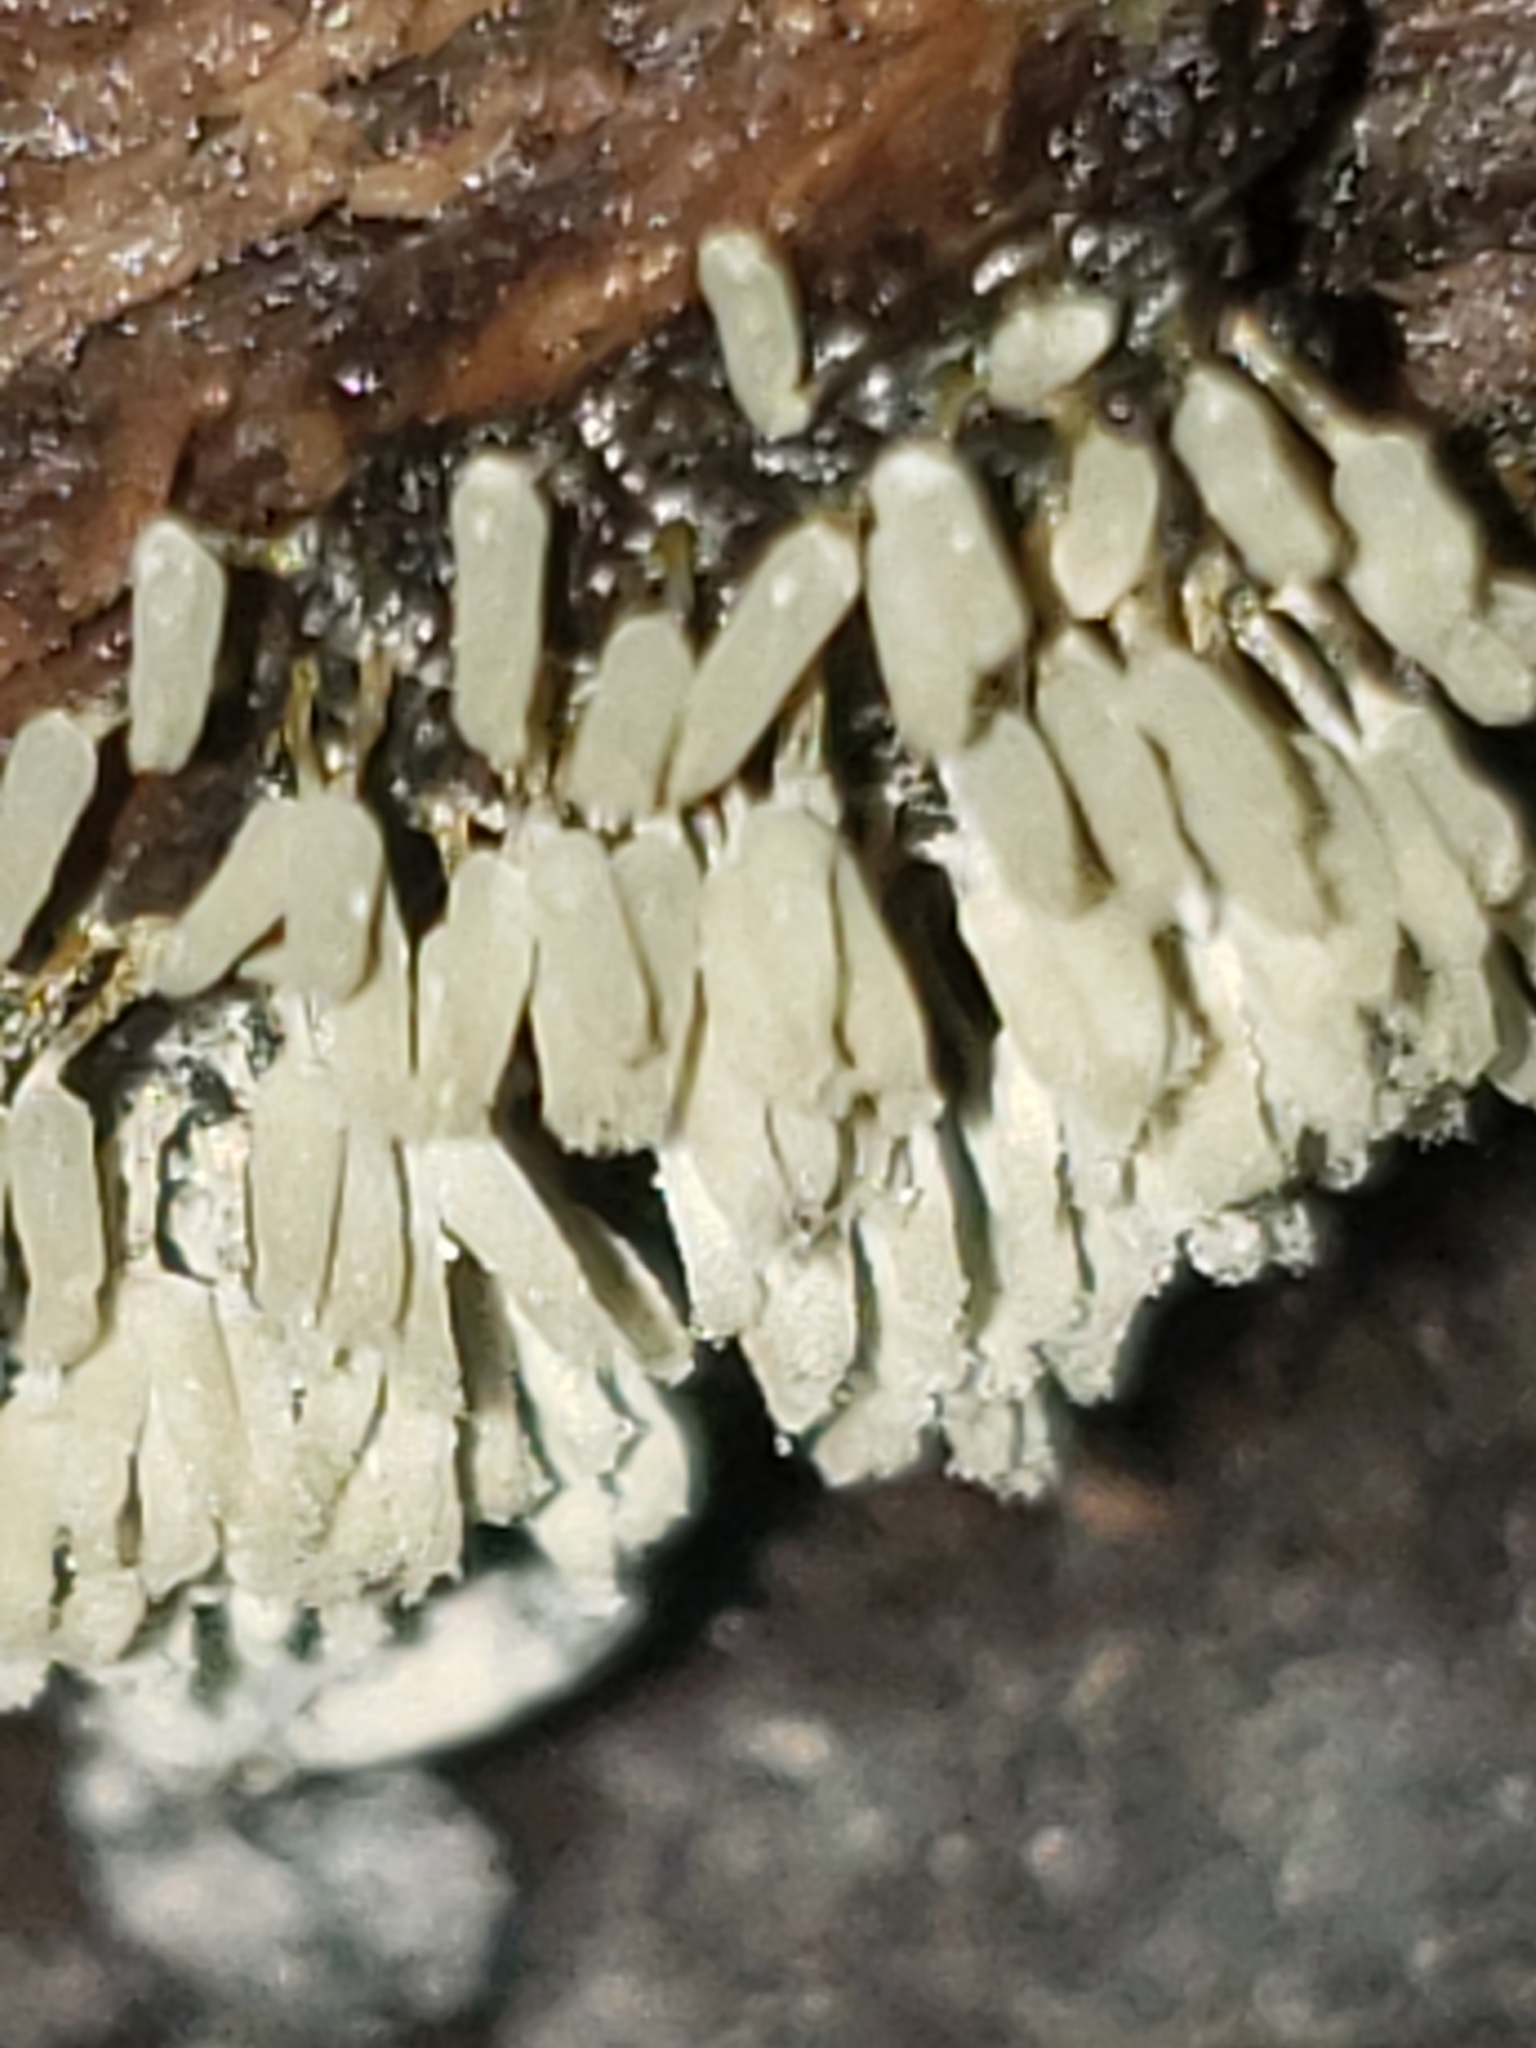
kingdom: Protozoa
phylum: Mycetozoa
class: Myxomycetes
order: Trichiales
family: Arcyriaceae
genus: Arcyria
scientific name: Arcyria cinerea
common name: White carnival candy slime mold
